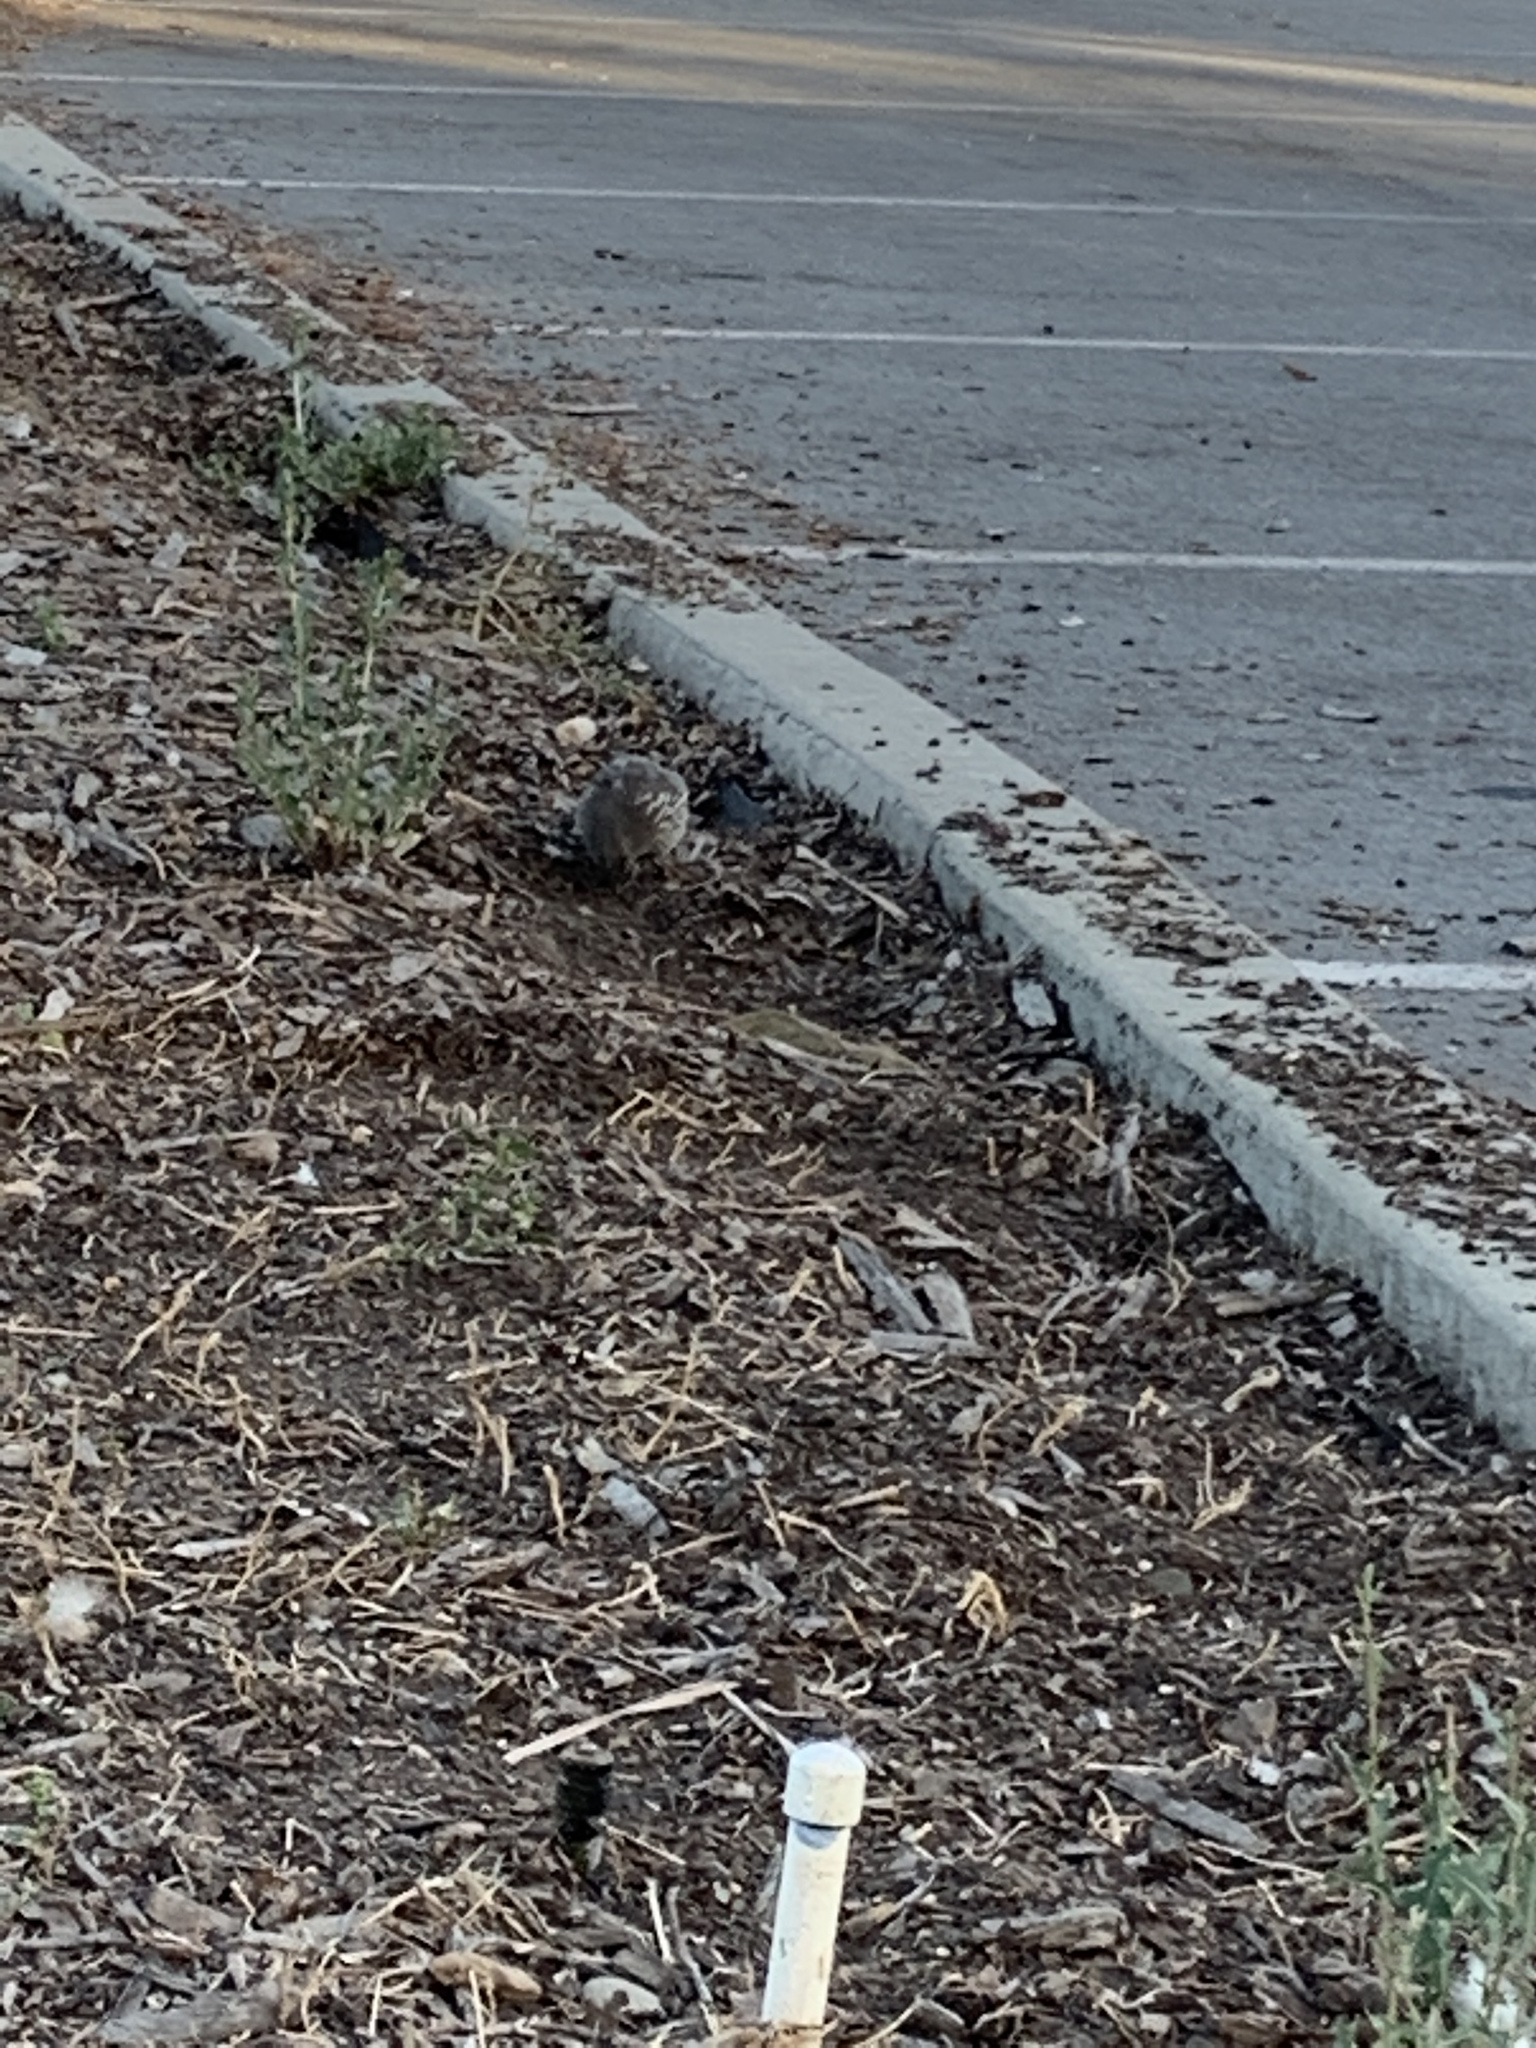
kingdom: Animalia
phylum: Chordata
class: Aves
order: Galliformes
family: Odontophoridae
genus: Callipepla
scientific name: Callipepla californica
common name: California quail
